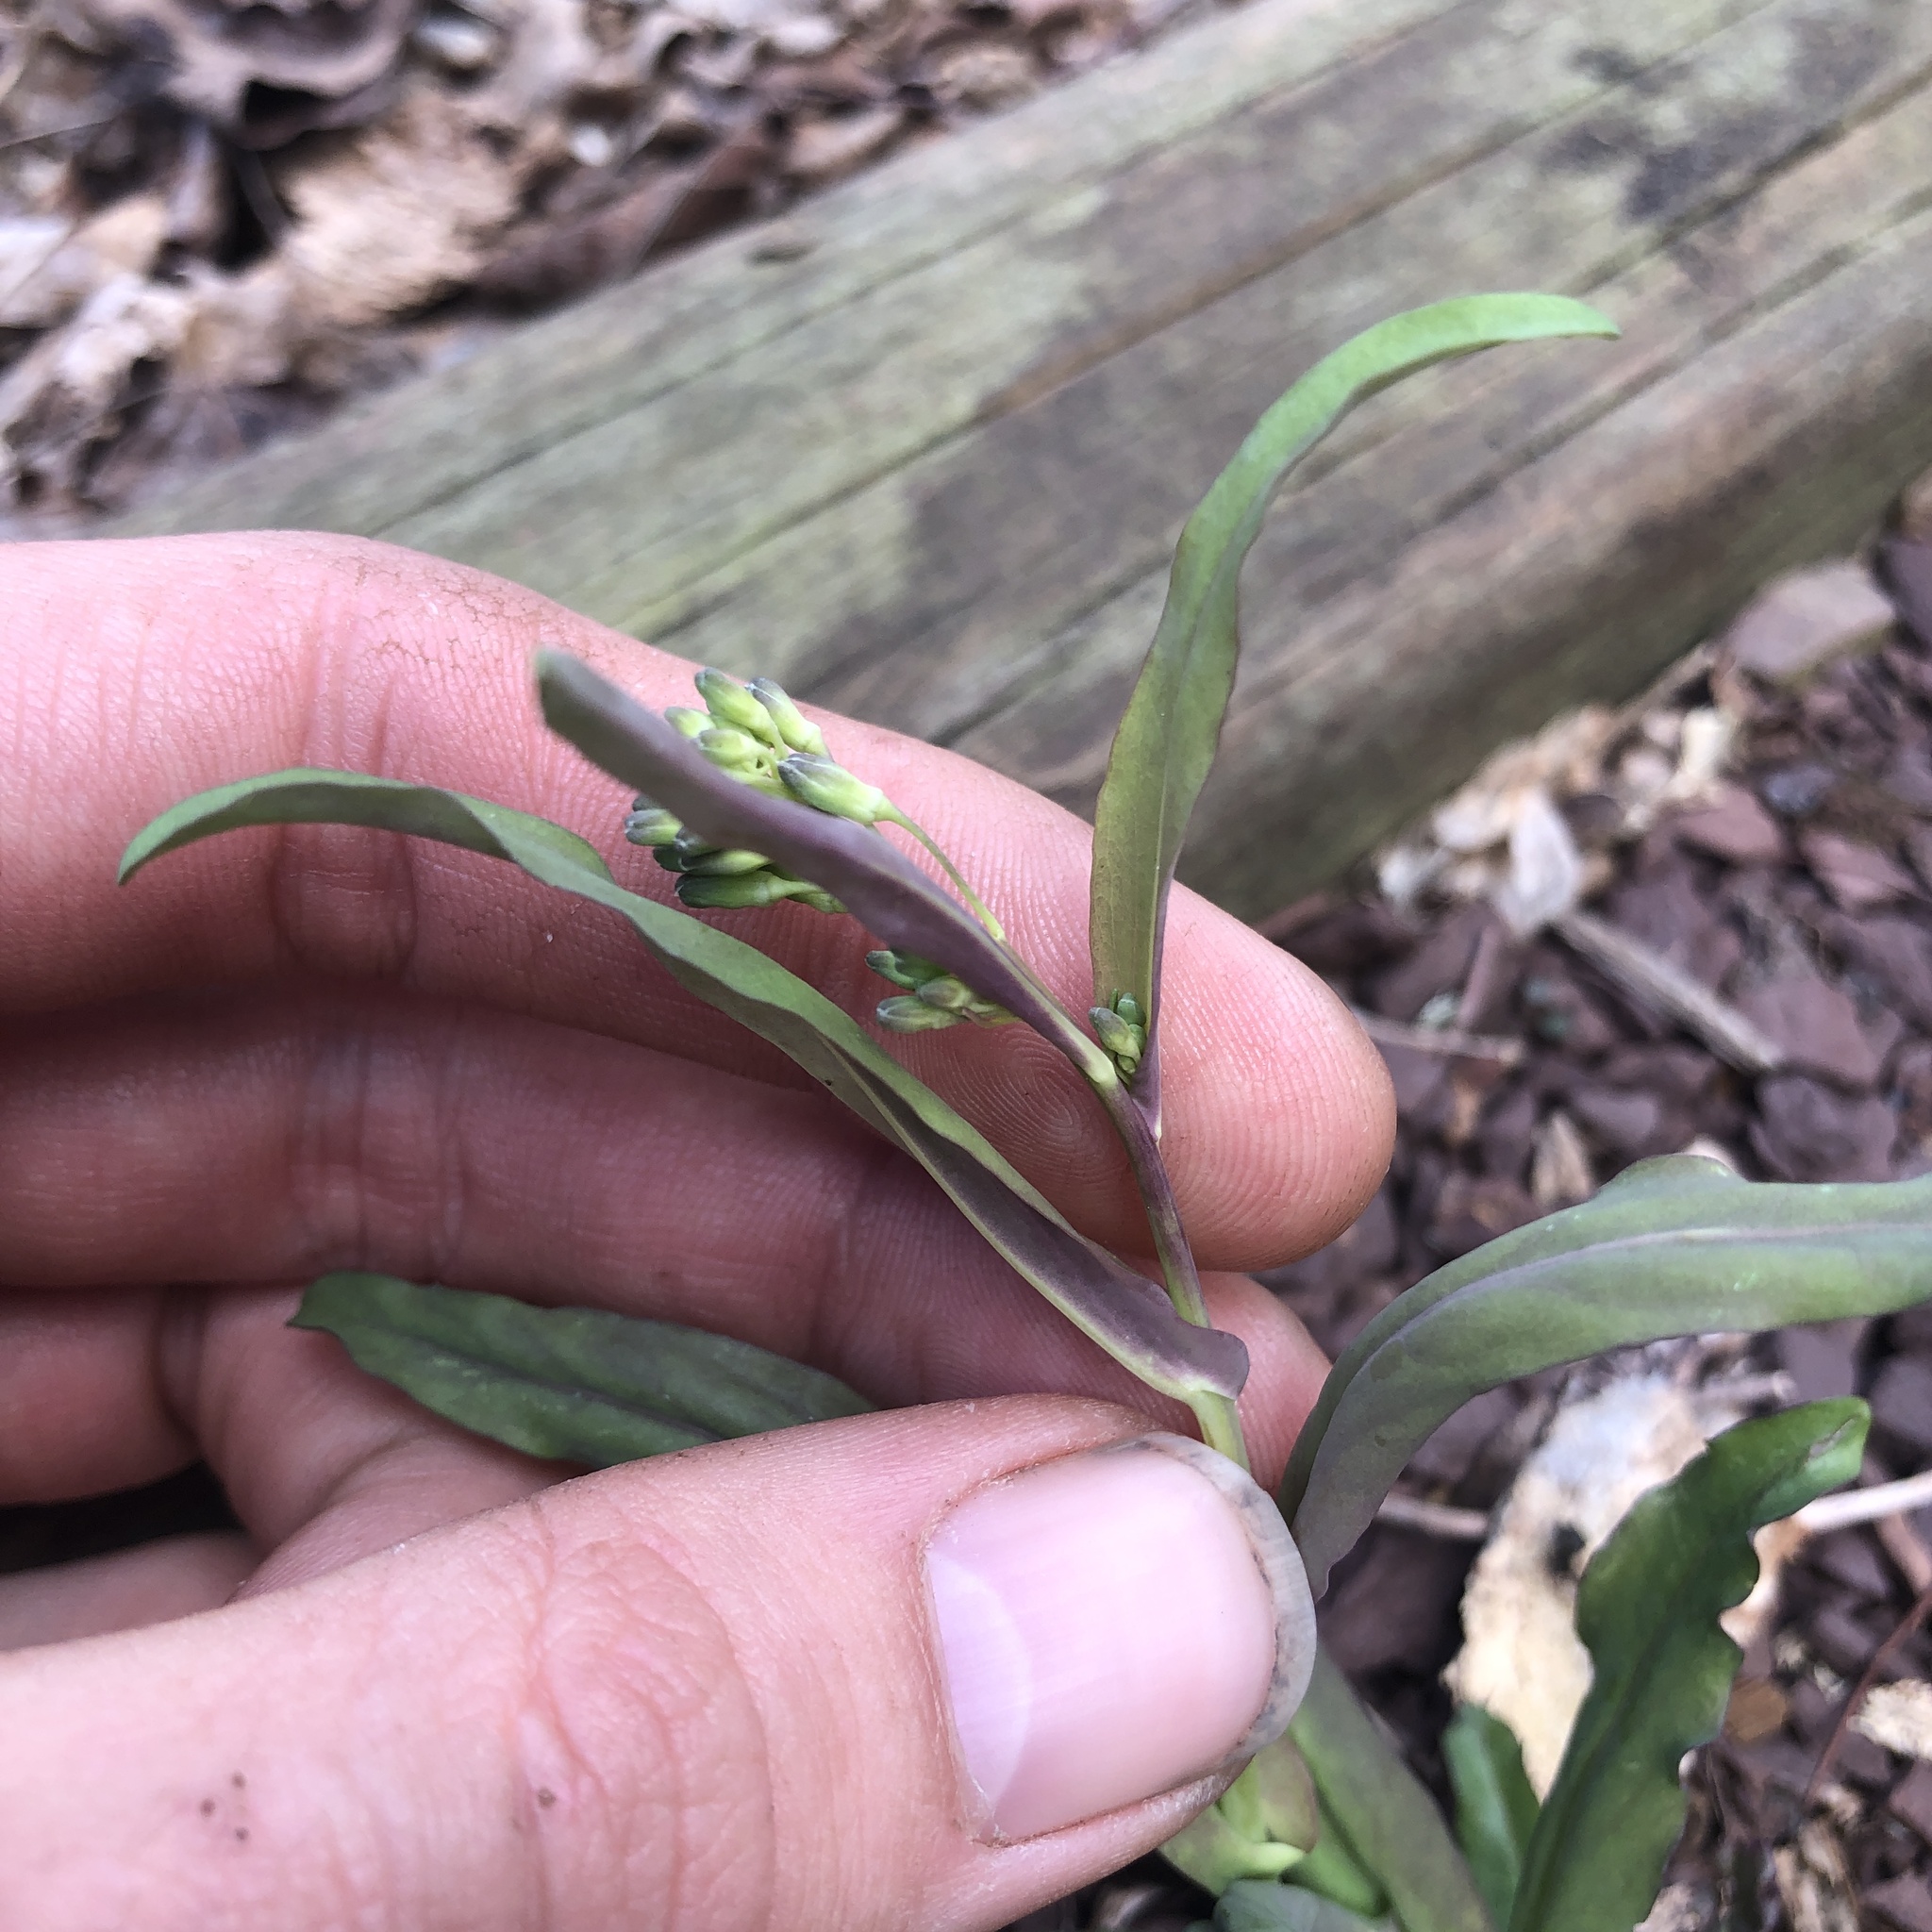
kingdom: Plantae
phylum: Tracheophyta
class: Magnoliopsida
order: Brassicales
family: Brassicaceae
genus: Borodinia
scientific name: Borodinia laevigata
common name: Smooth rockcress
